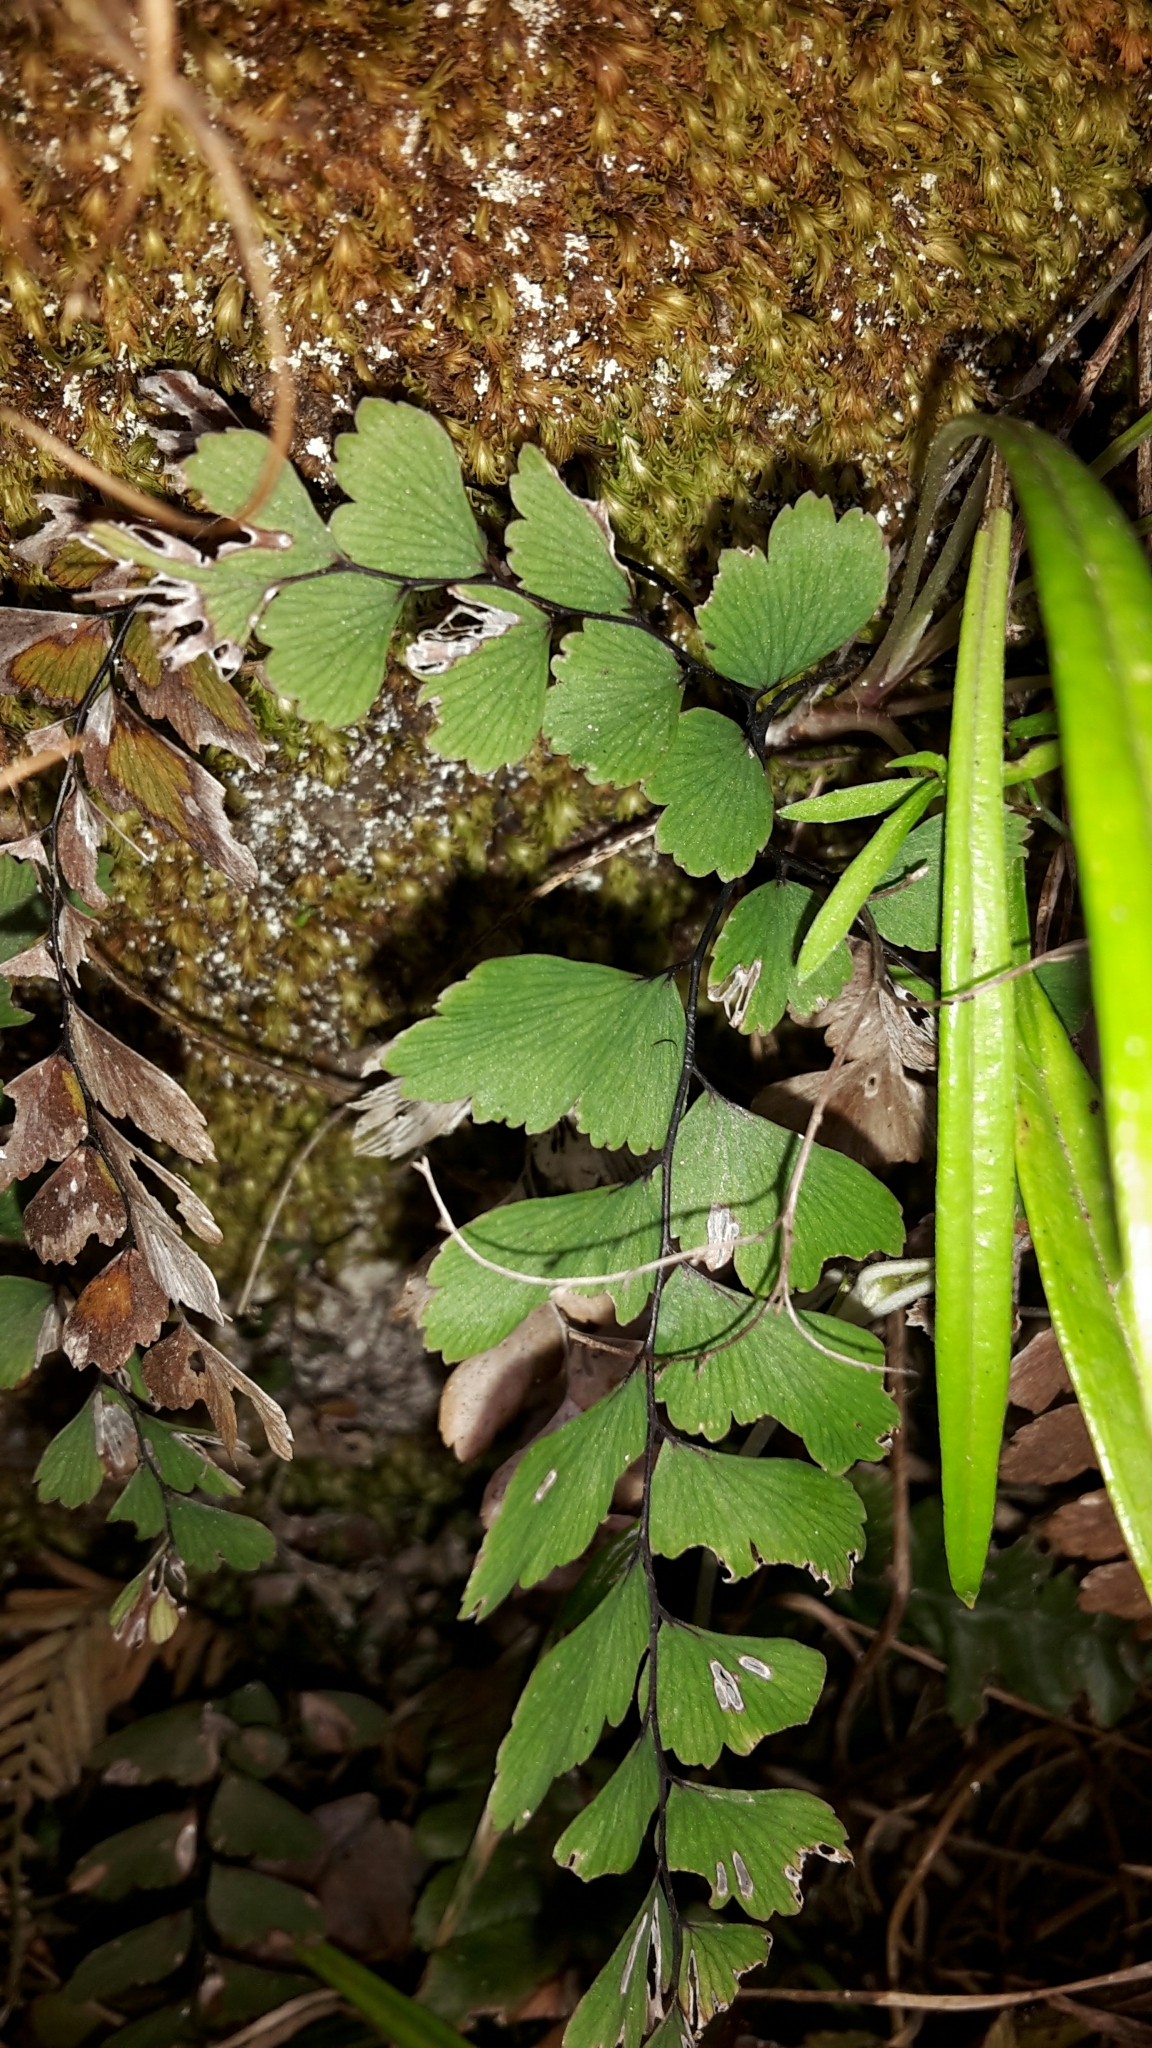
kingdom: Plantae
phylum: Tracheophyta
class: Polypodiopsida
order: Polypodiales
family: Pteridaceae
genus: Adiantum
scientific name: Adiantum cunninghamii
